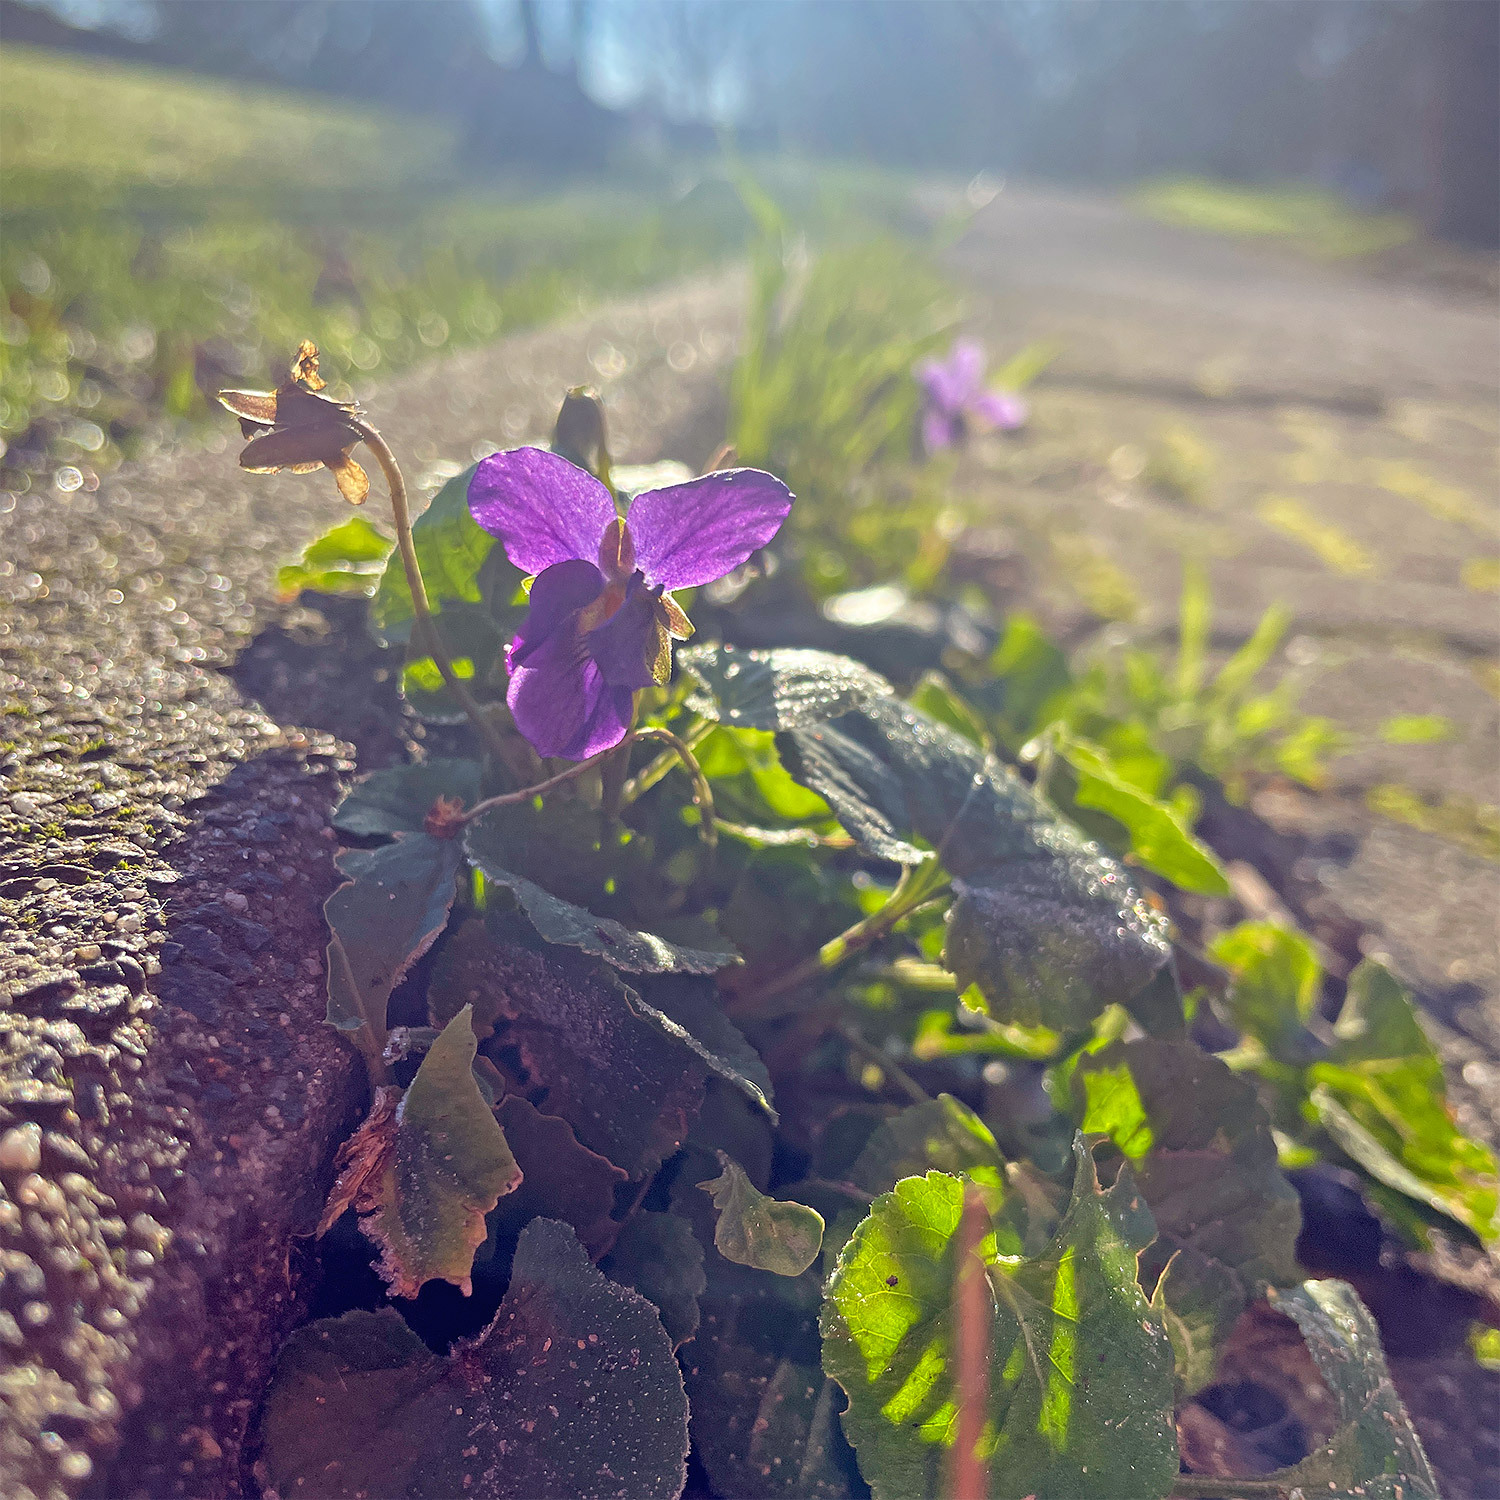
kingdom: Plantae
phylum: Tracheophyta
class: Magnoliopsida
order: Malpighiales
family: Violaceae
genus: Viola
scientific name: Viola odorata
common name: Sweet violet
